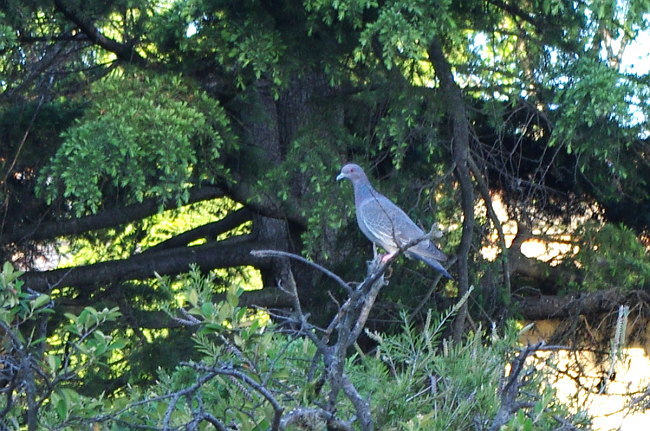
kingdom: Animalia
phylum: Chordata
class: Aves
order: Columbiformes
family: Columbidae
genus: Patagioenas
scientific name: Patagioenas picazuro
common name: Picazuro pigeon
